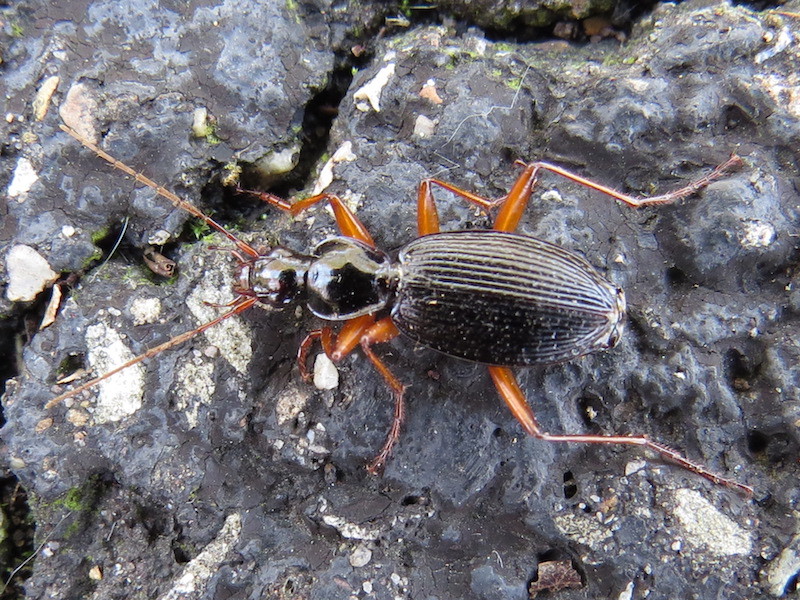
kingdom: Animalia
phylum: Arthropoda
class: Insecta
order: Coleoptera
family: Carabidae
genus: Platynus
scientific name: Platynus hypolithos
